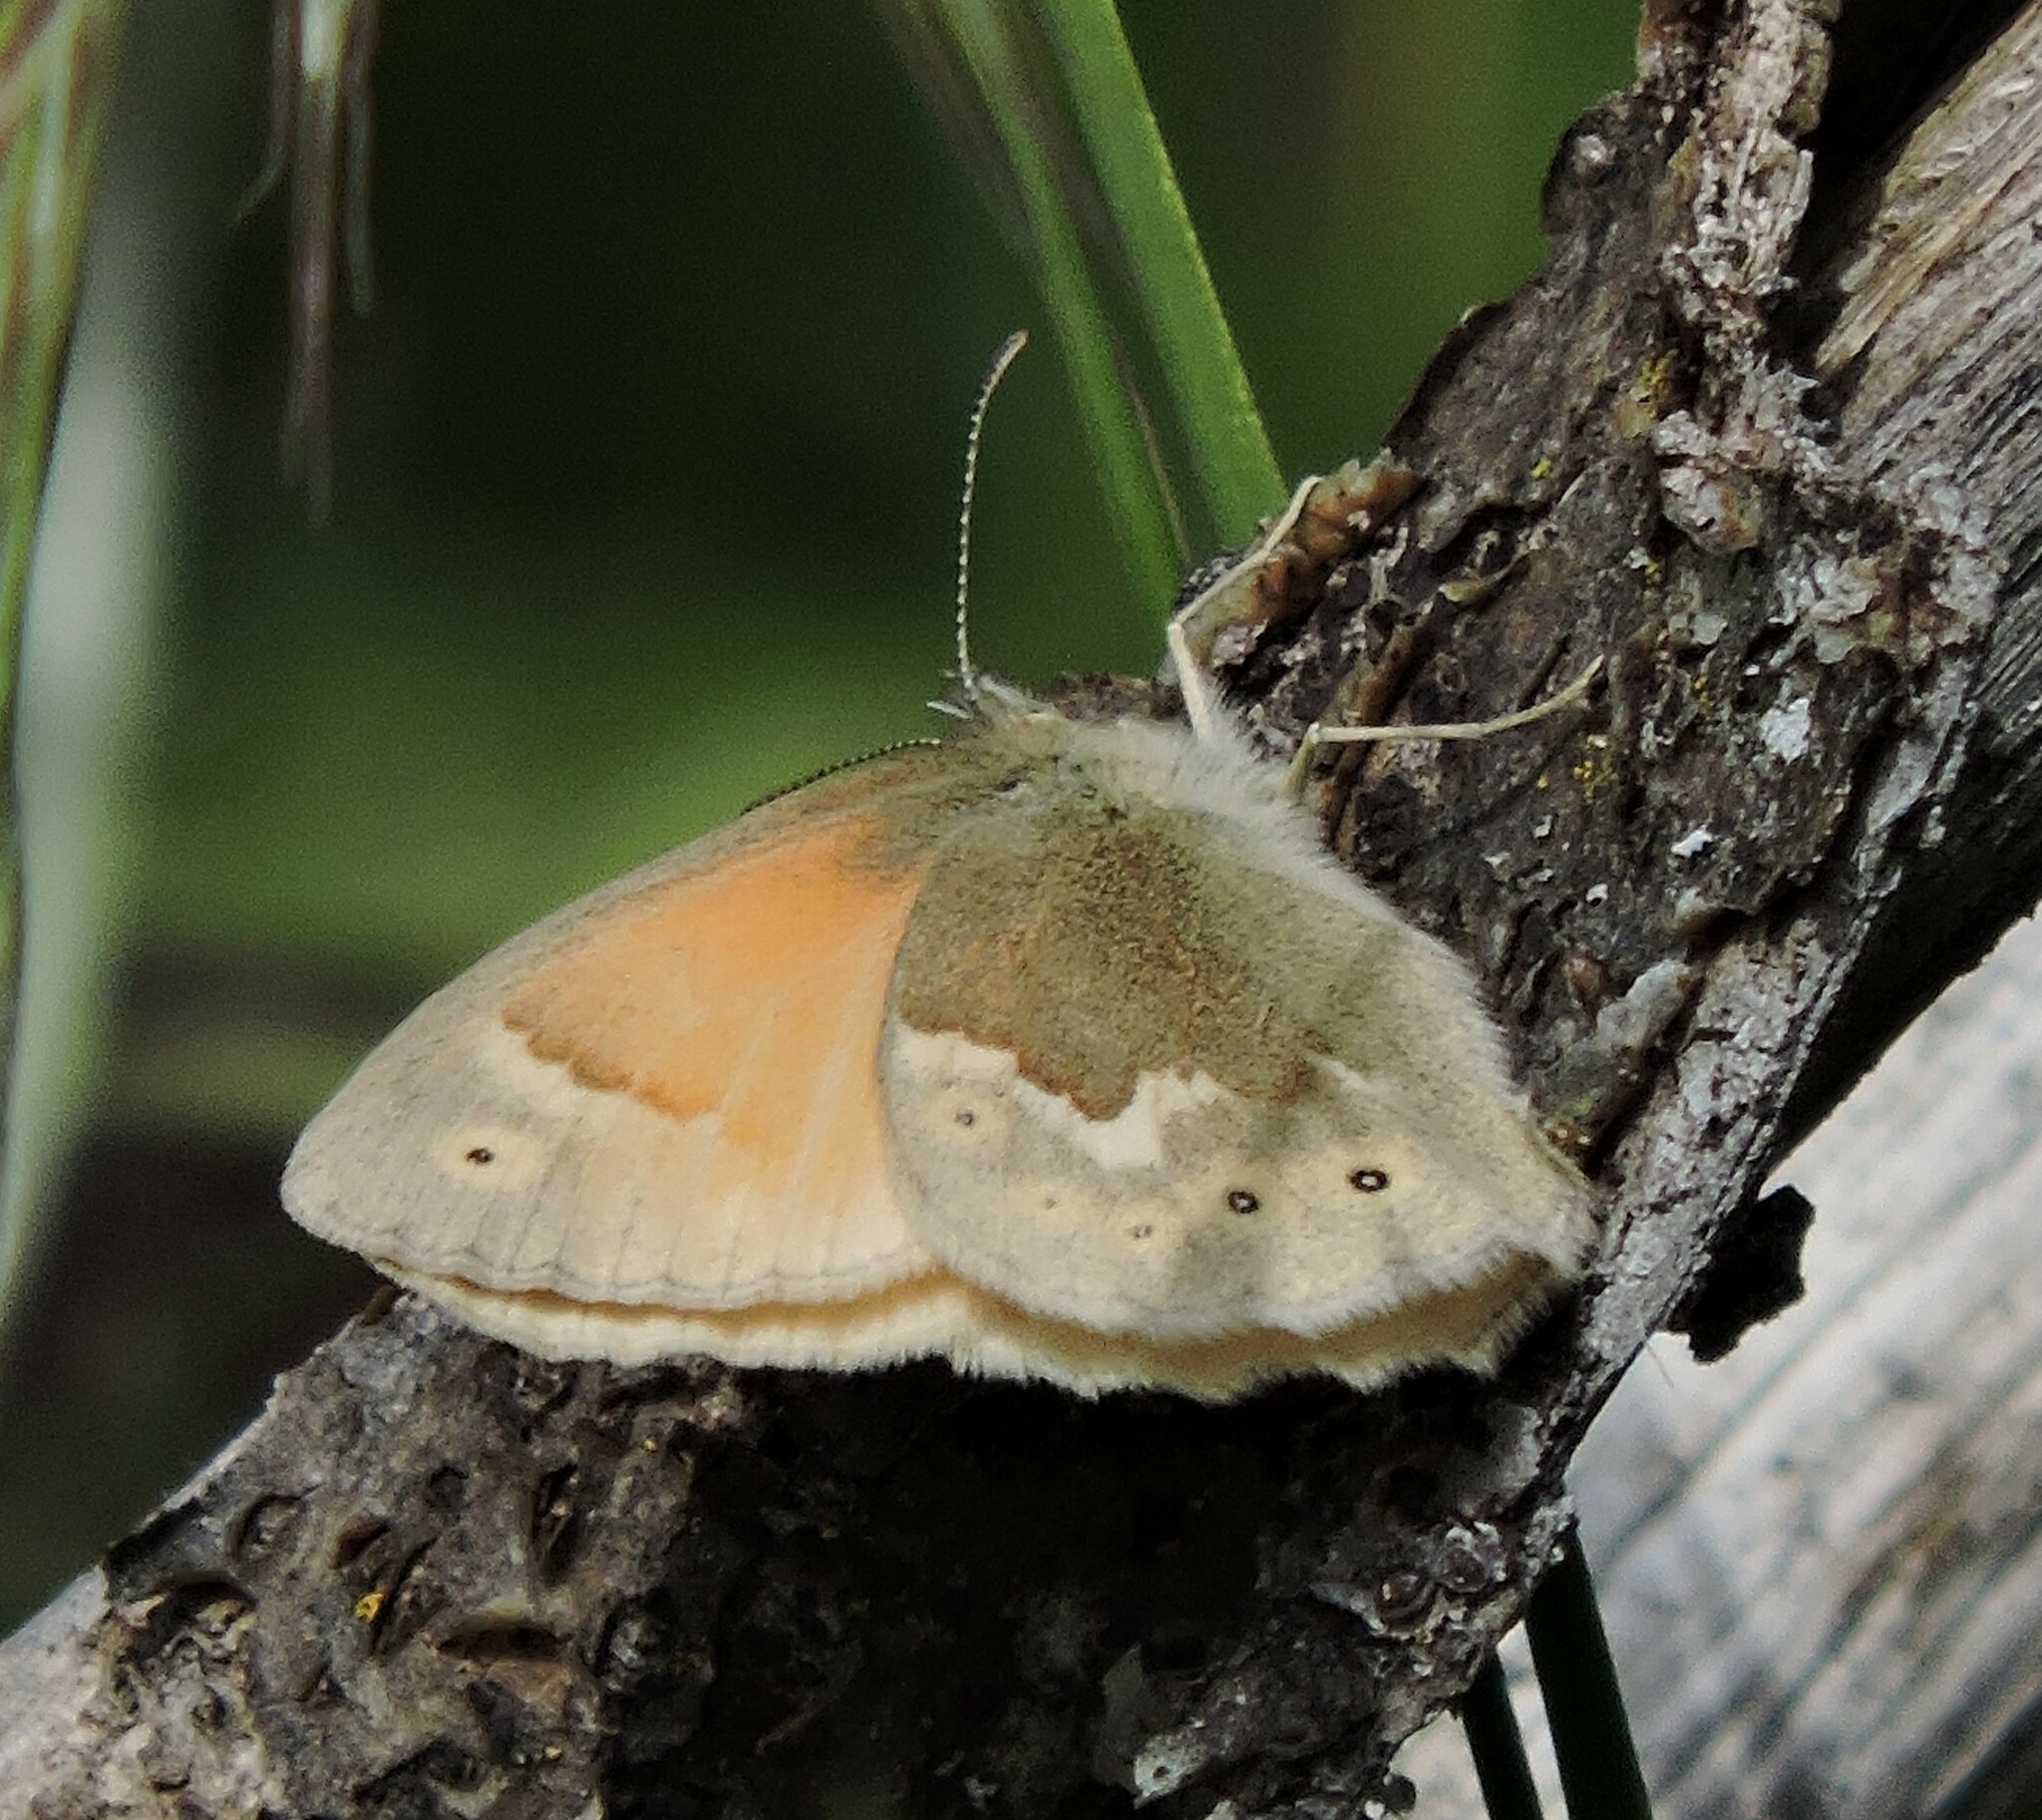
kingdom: Animalia
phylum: Arthropoda
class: Insecta
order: Lepidoptera
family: Nymphalidae
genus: Coenonympha
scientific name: Coenonympha california
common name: Common ringlet
